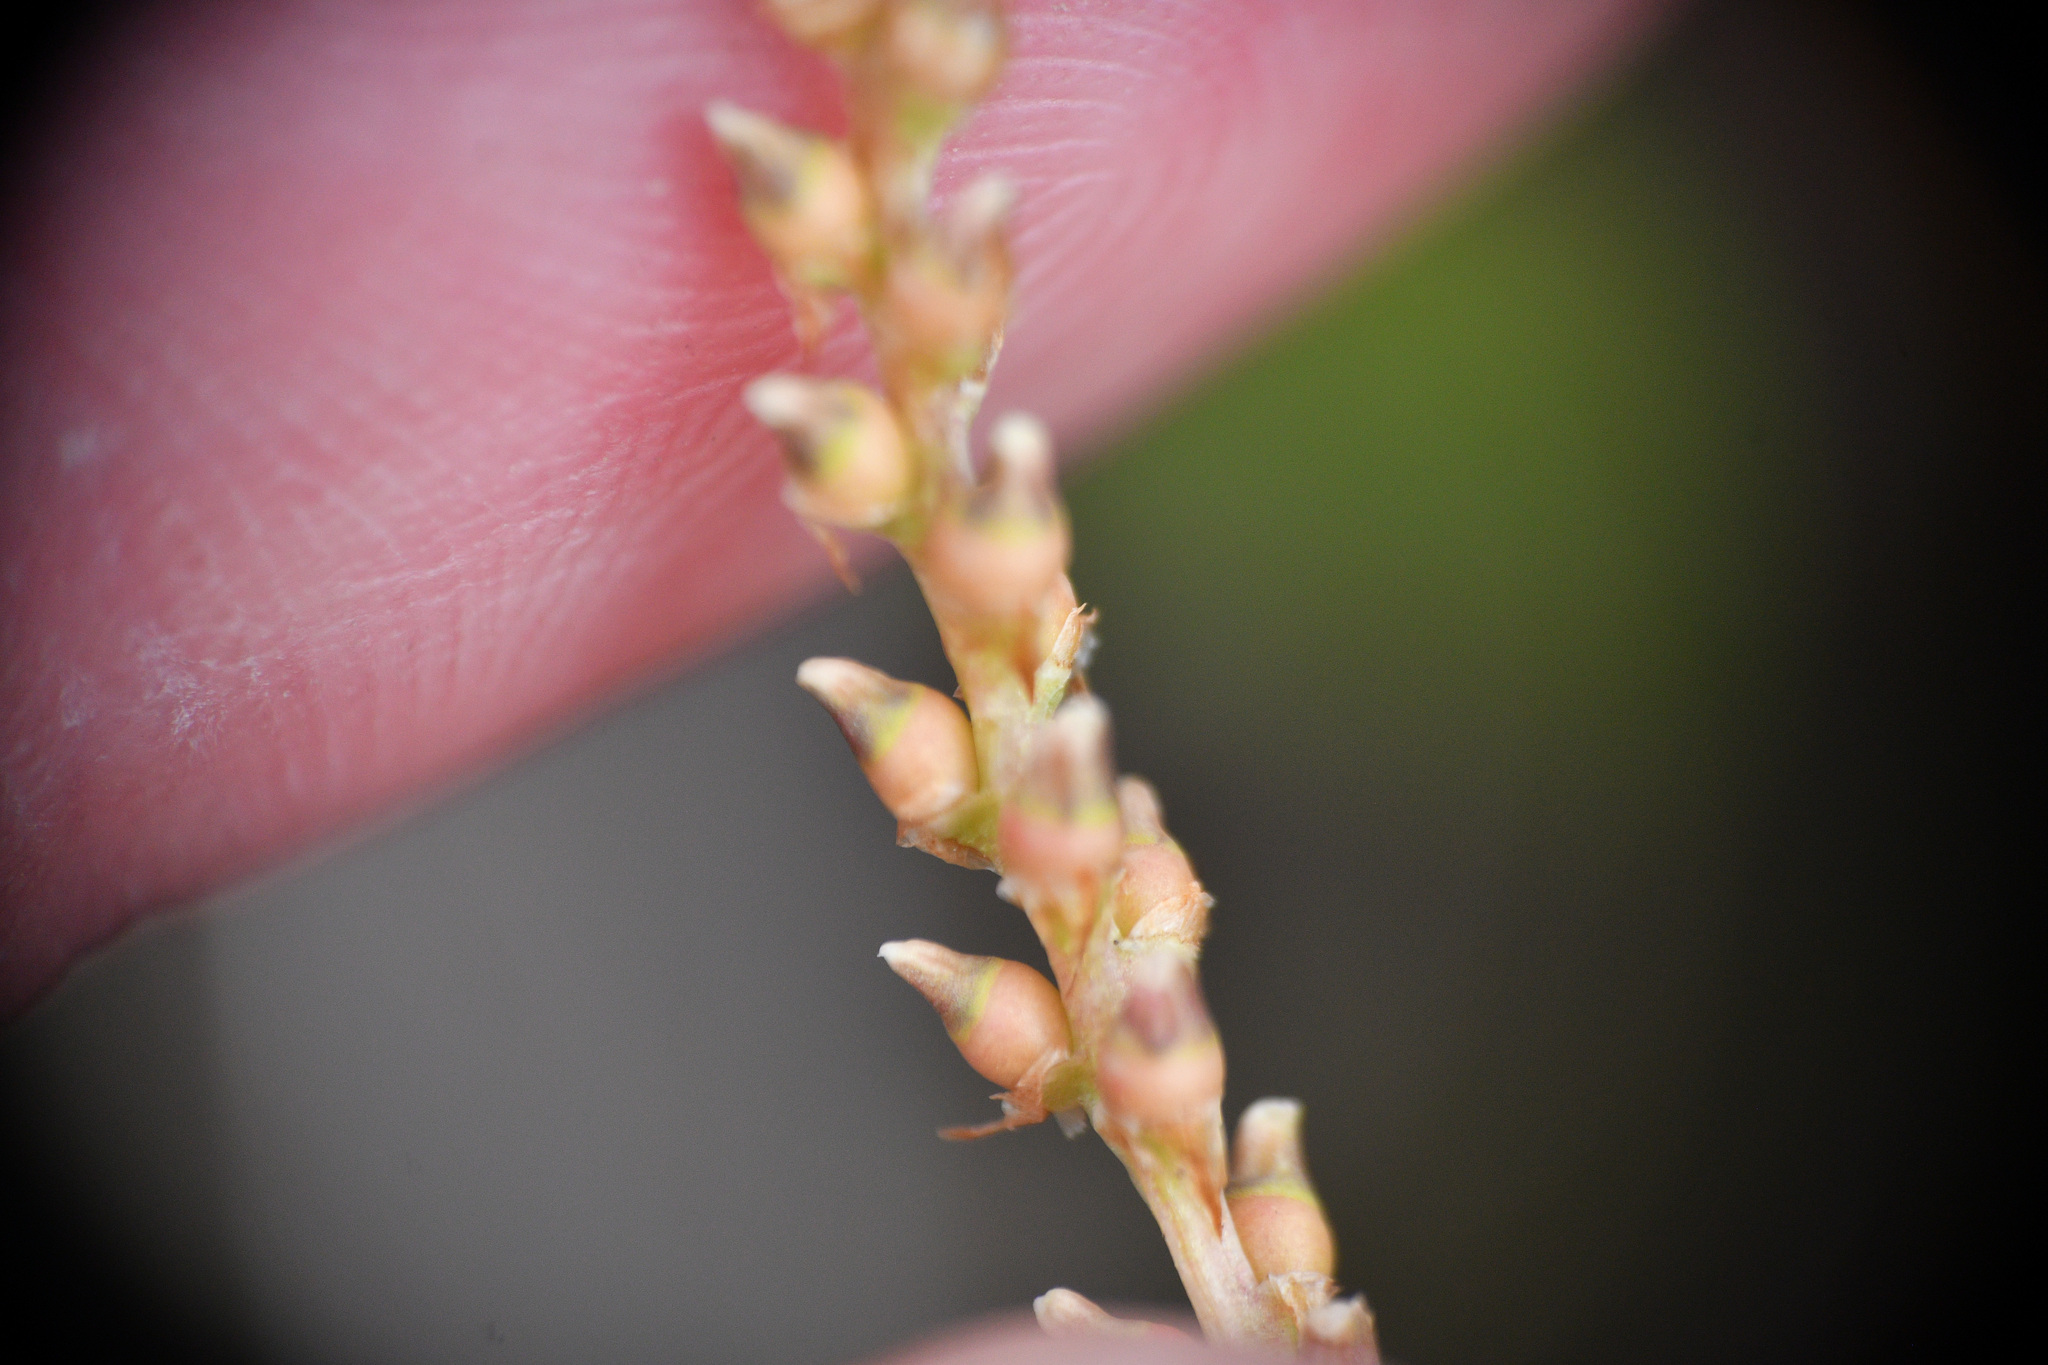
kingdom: Plantae
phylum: Tracheophyta
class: Magnoliopsida
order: Caryophyllales
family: Polygonaceae
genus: Bistorta
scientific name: Bistorta vivipara
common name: Alpine bistort
